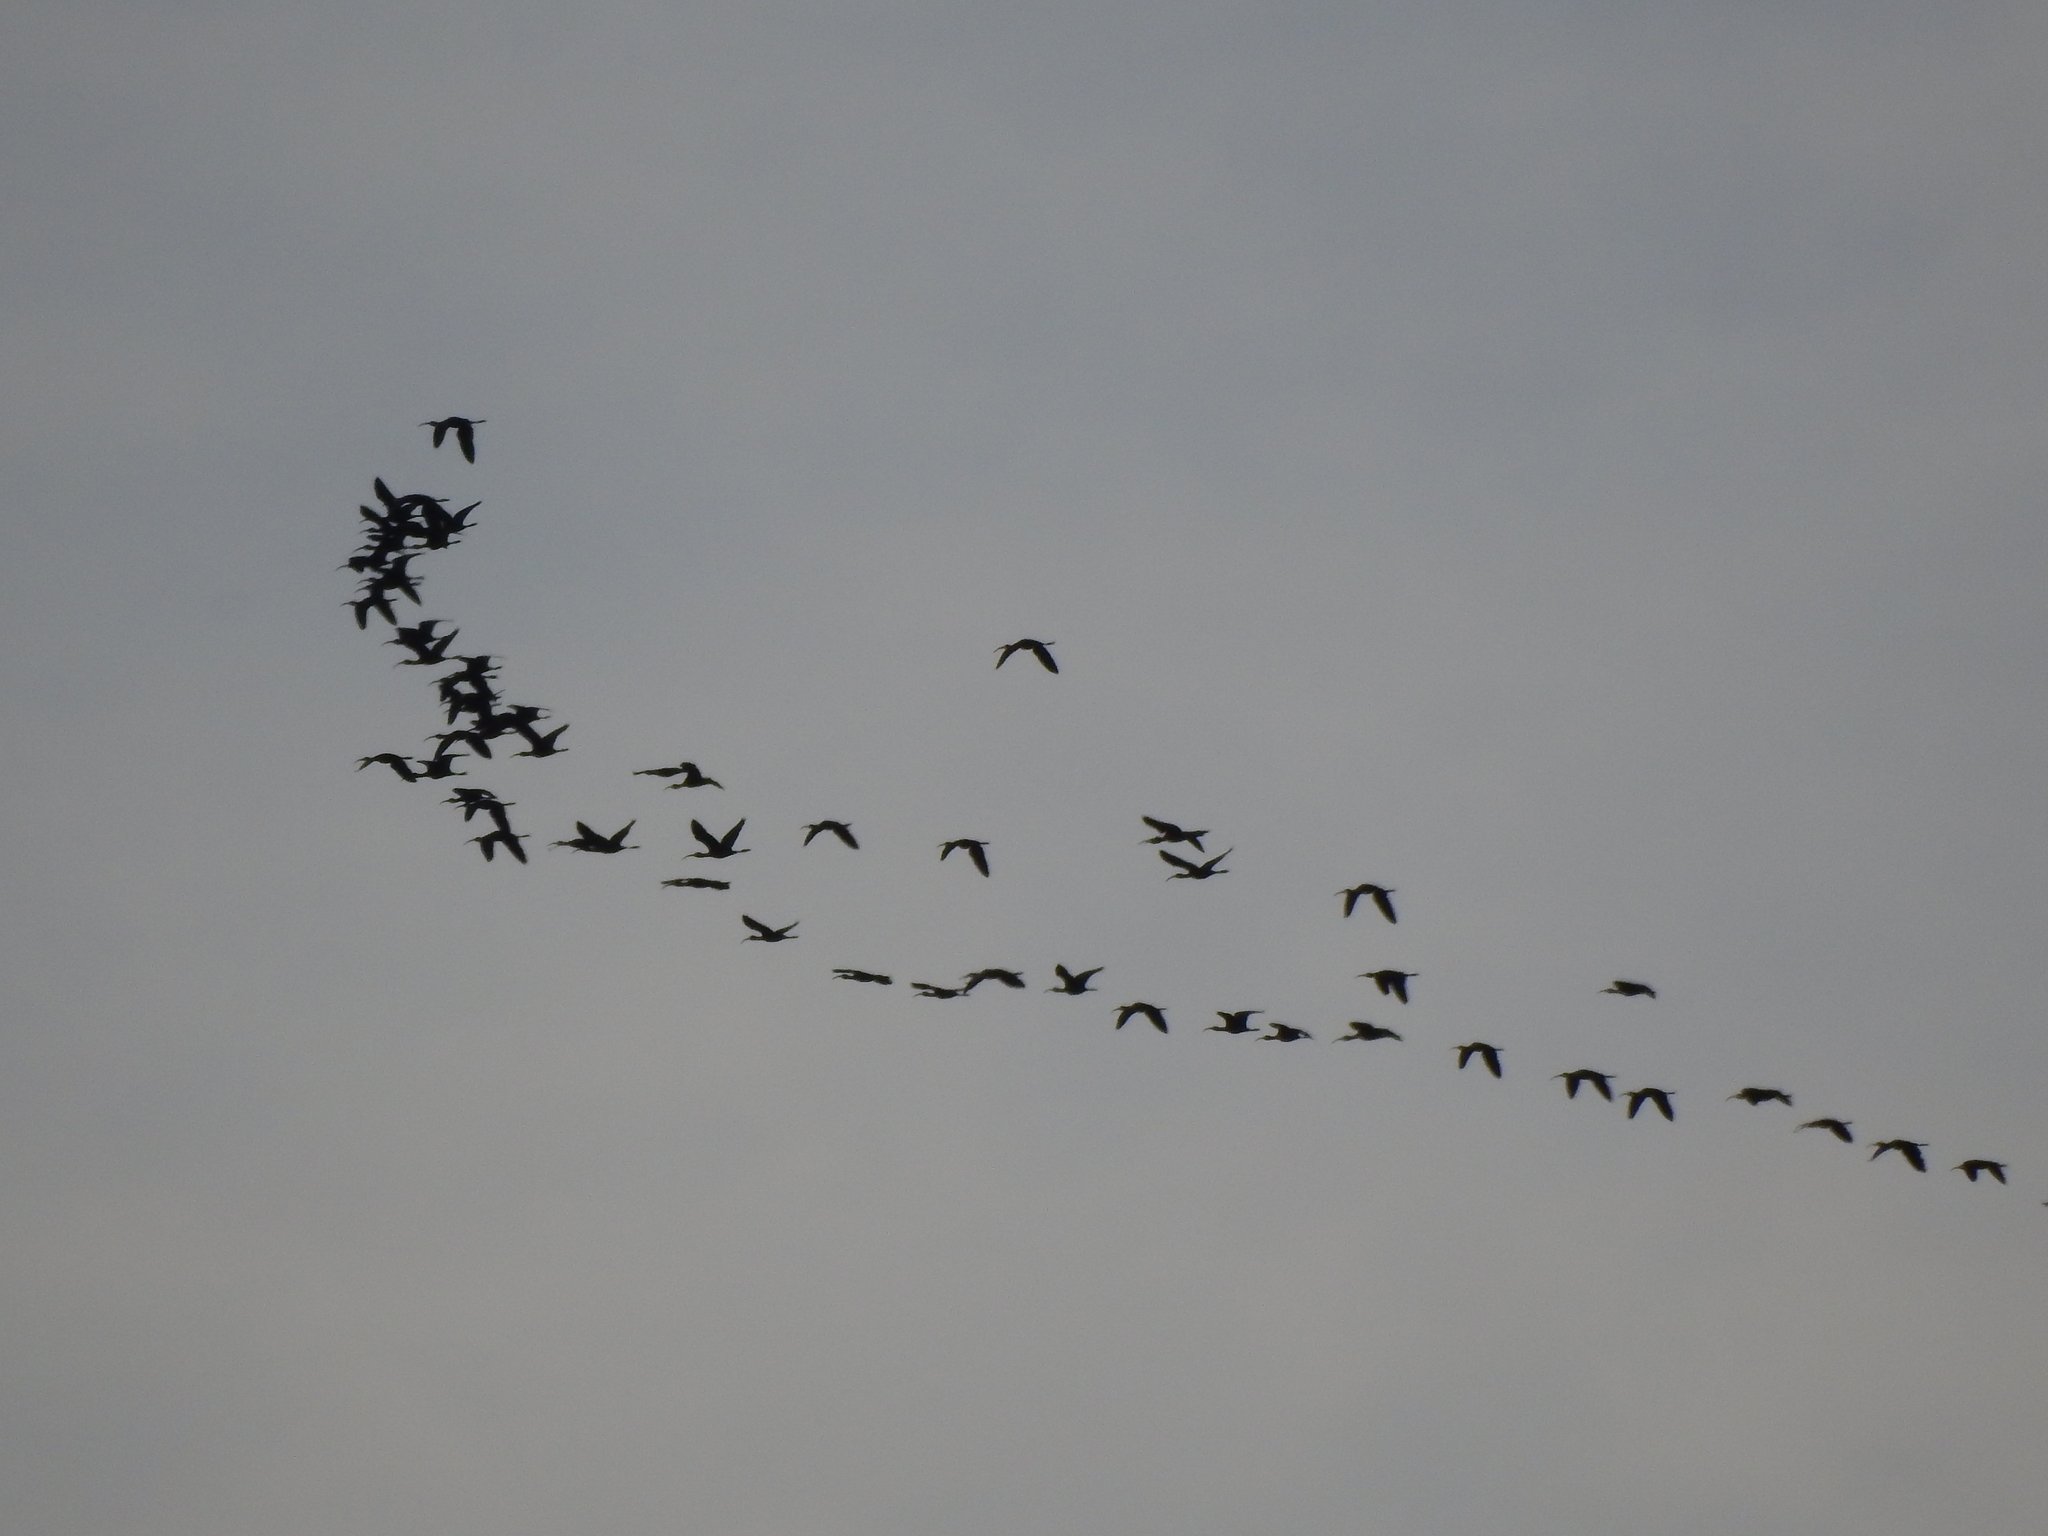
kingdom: Animalia
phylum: Chordata
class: Aves
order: Pelecaniformes
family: Threskiornithidae
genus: Plegadis
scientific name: Plegadis chihi
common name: White-faced ibis
